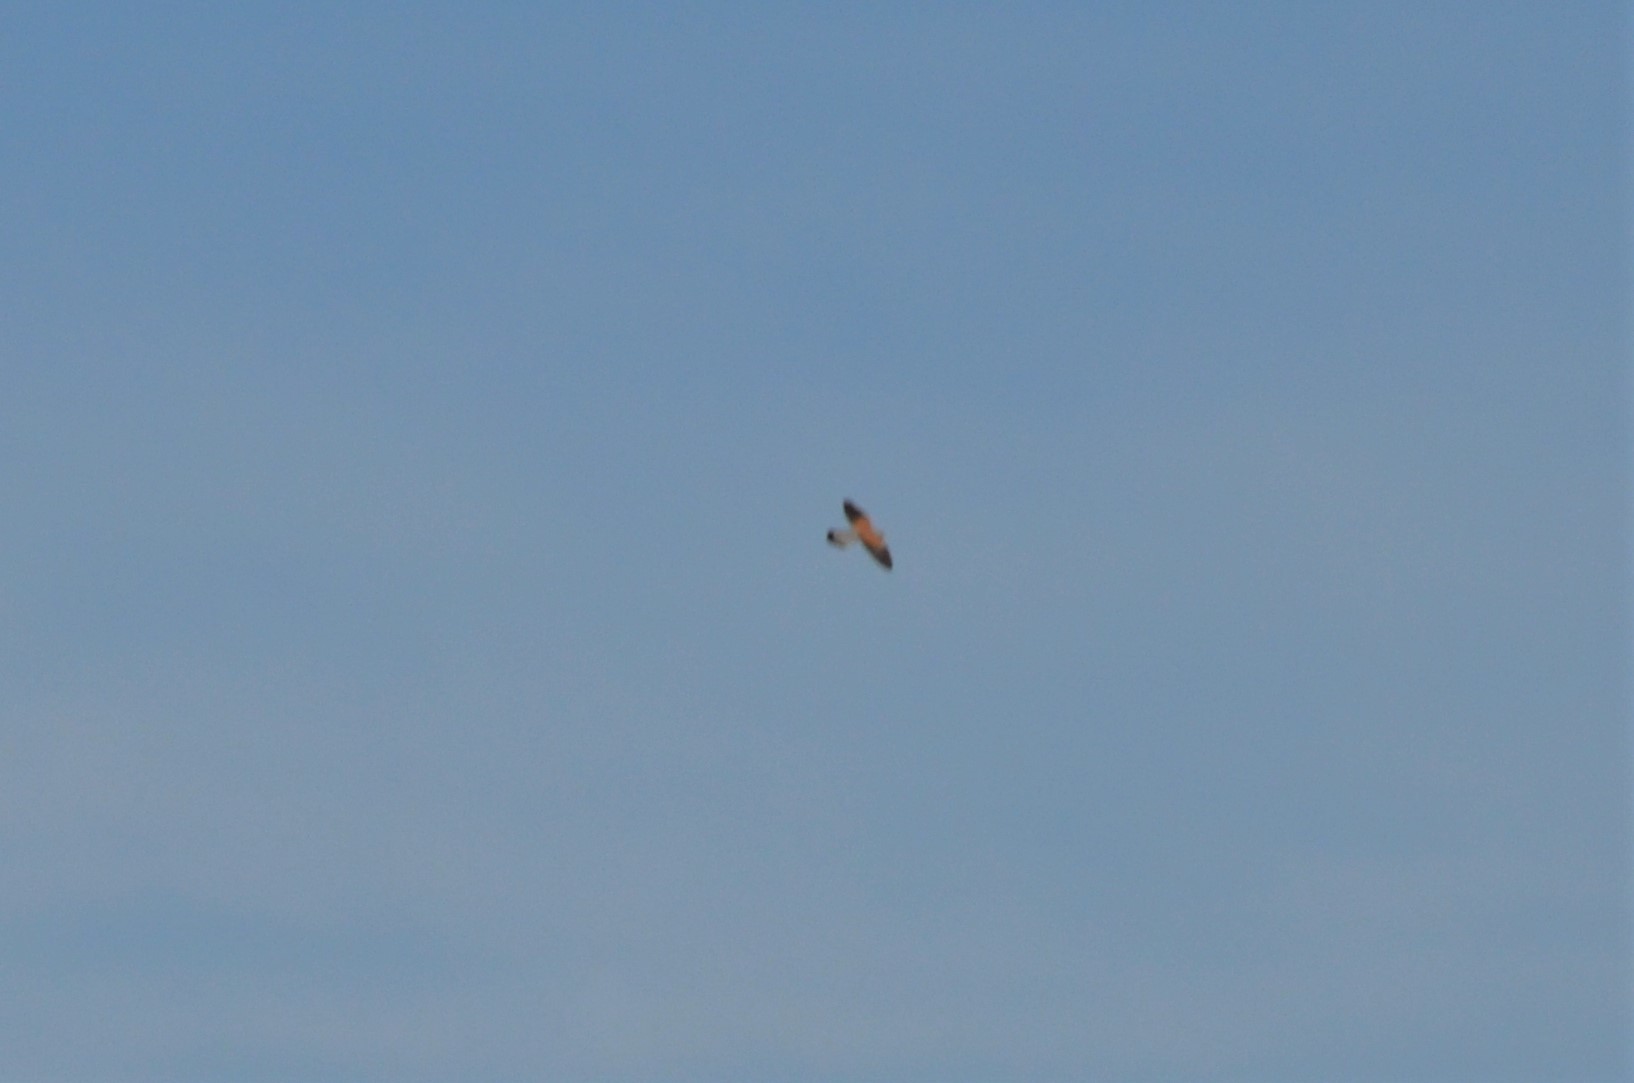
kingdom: Animalia
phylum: Chordata
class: Aves
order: Falconiformes
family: Falconidae
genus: Falco
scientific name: Falco tinnunculus
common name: Common kestrel
